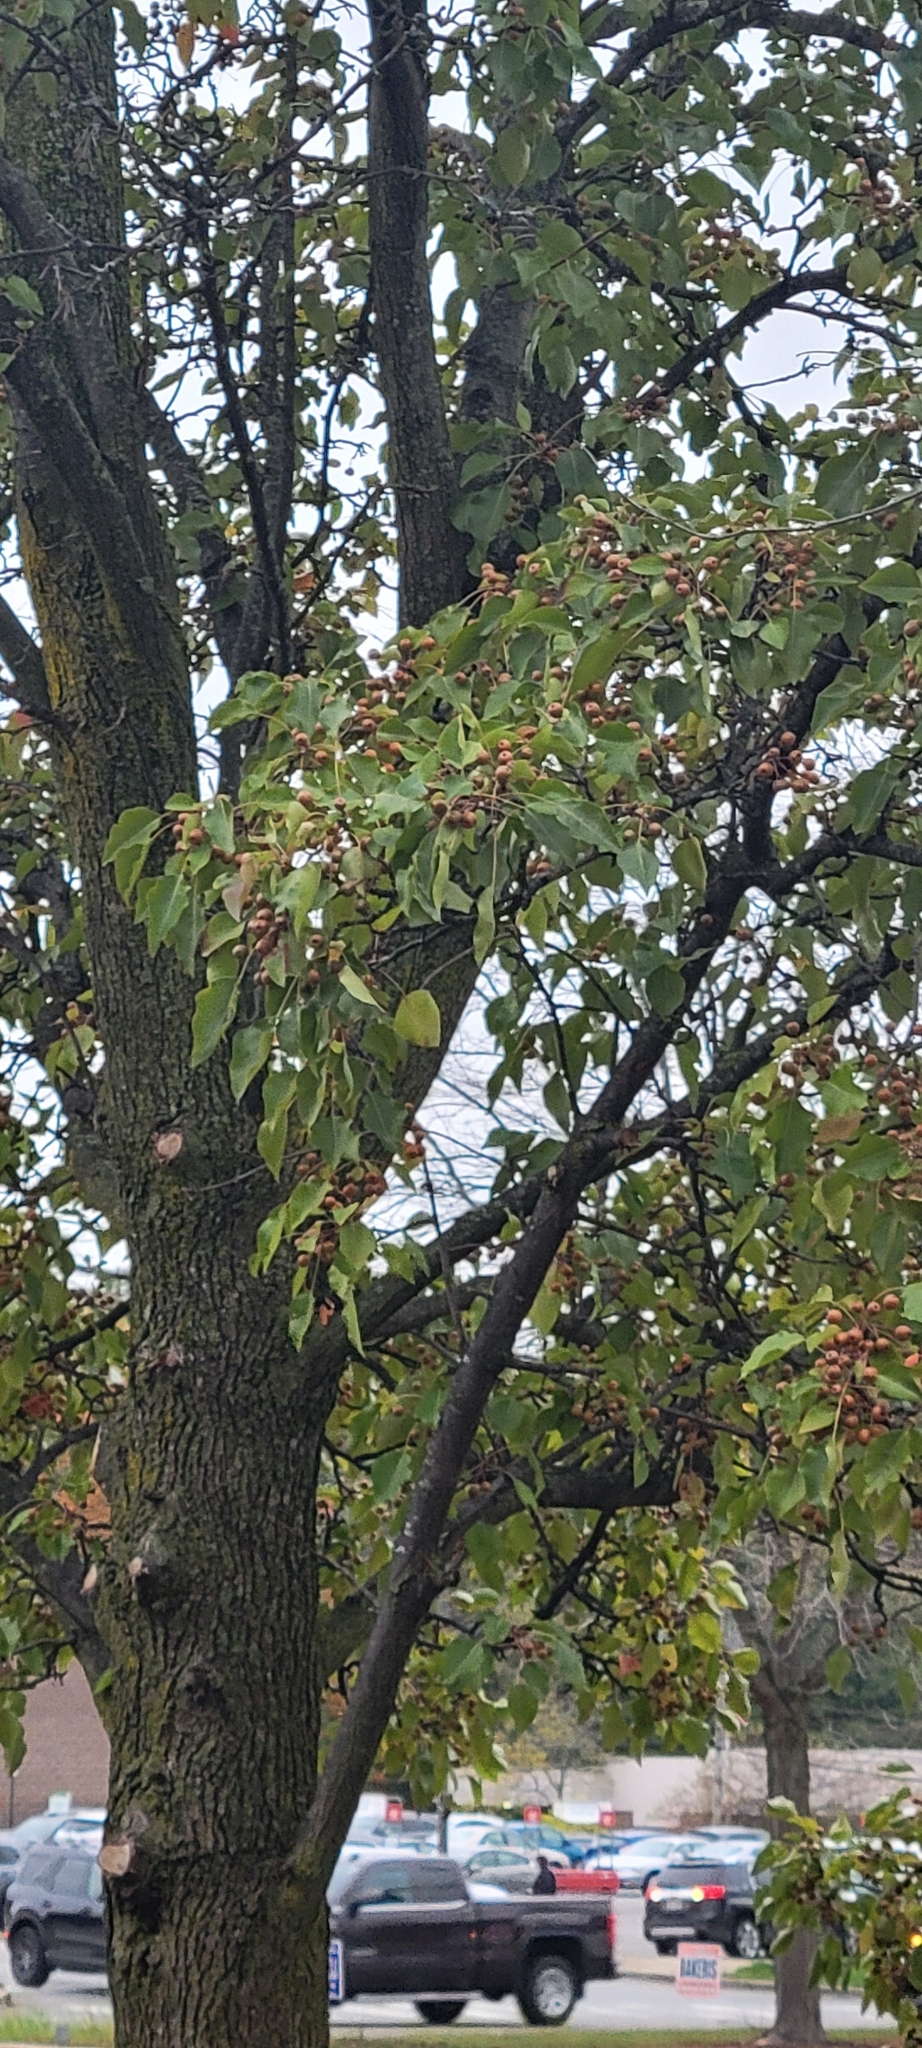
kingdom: Plantae
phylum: Tracheophyta
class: Magnoliopsida
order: Rosales
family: Rosaceae
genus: Pyrus
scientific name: Pyrus calleryana
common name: Callery pear
